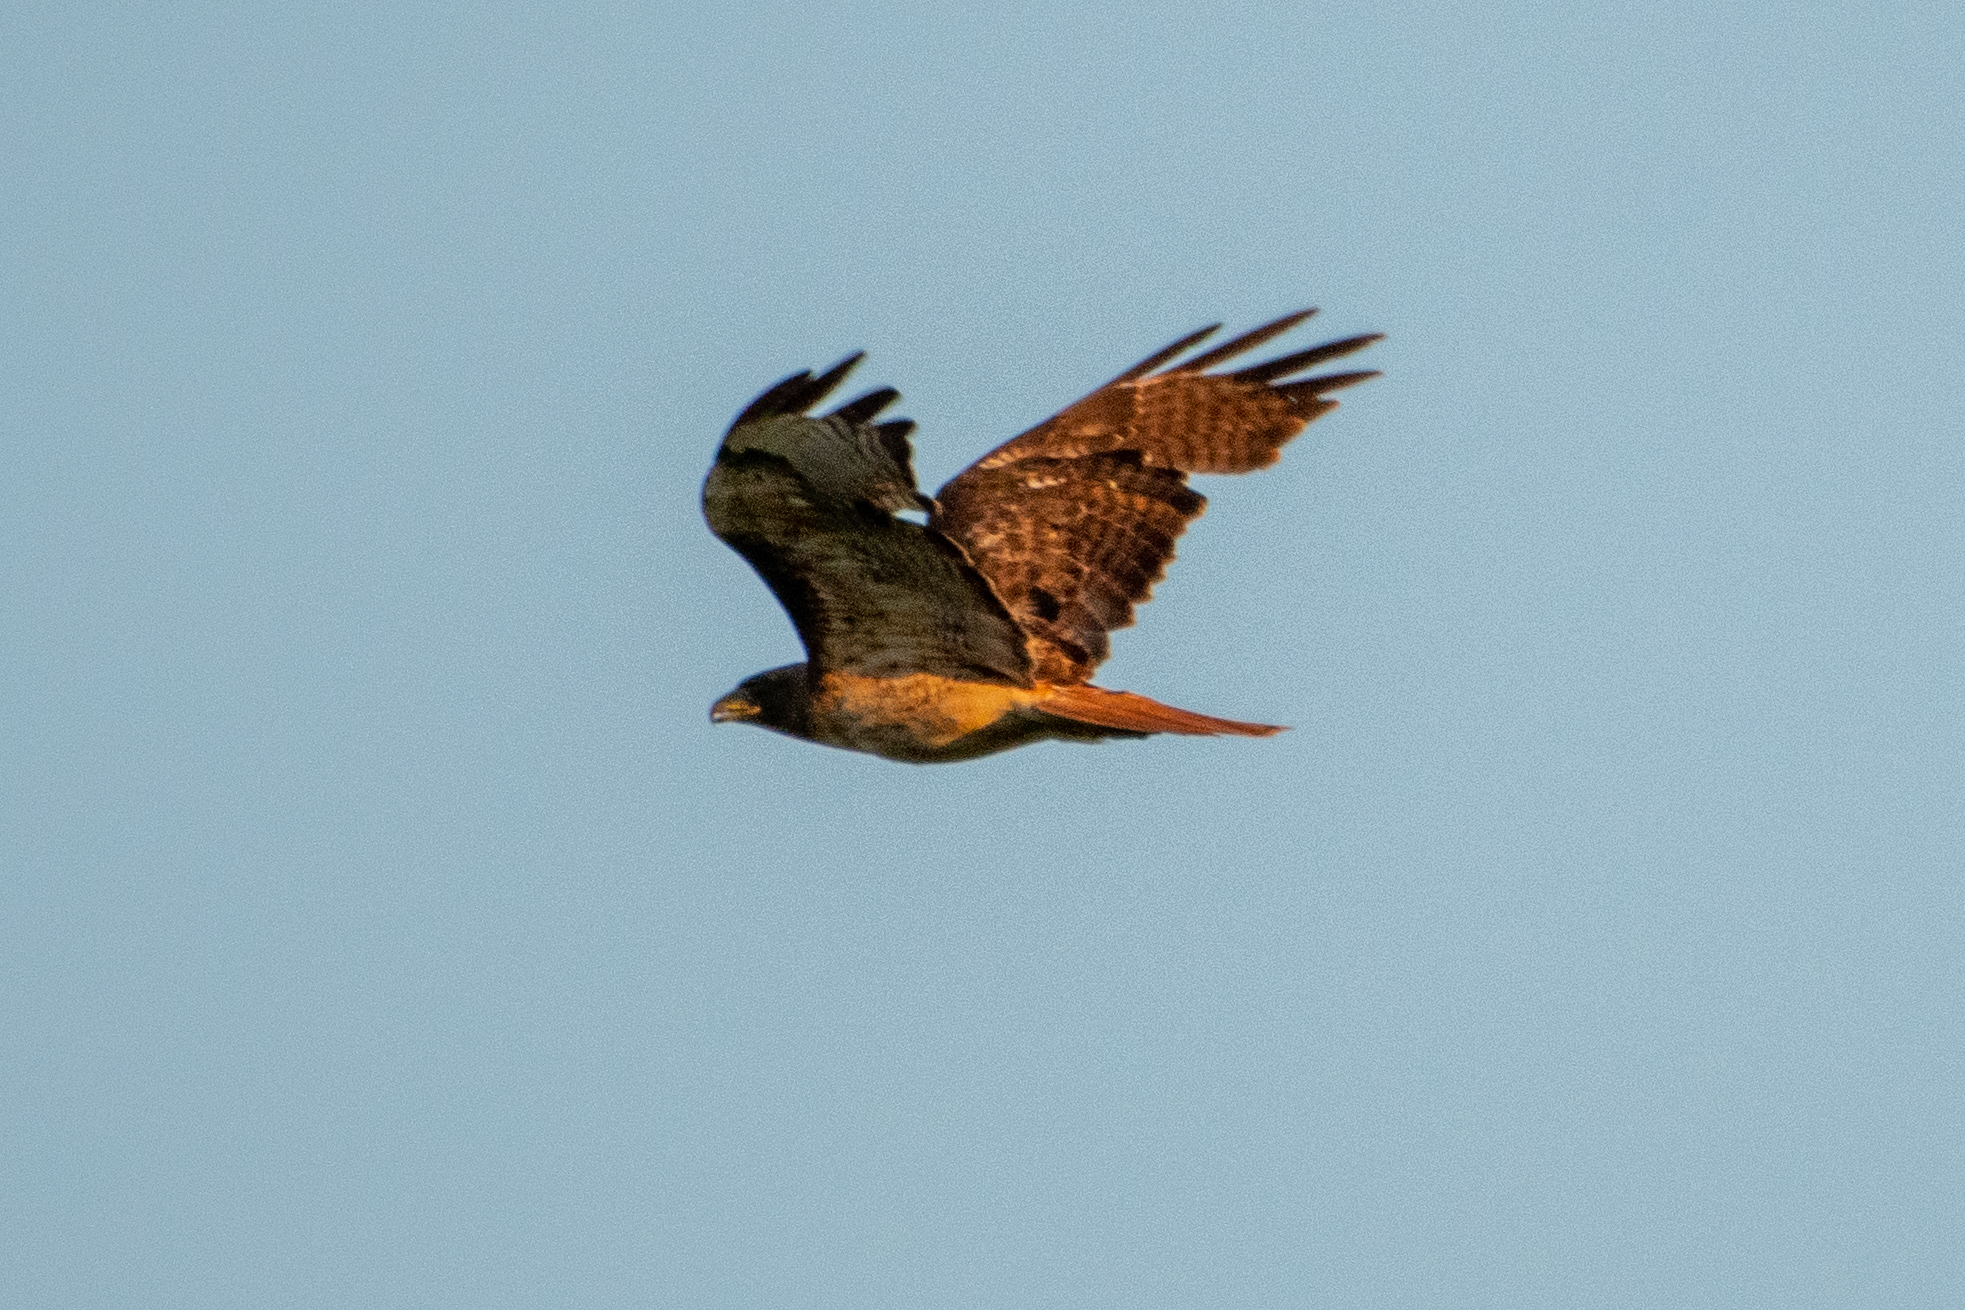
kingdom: Animalia
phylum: Chordata
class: Aves
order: Accipitriformes
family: Accipitridae
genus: Buteo
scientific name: Buteo jamaicensis
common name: Red-tailed hawk
